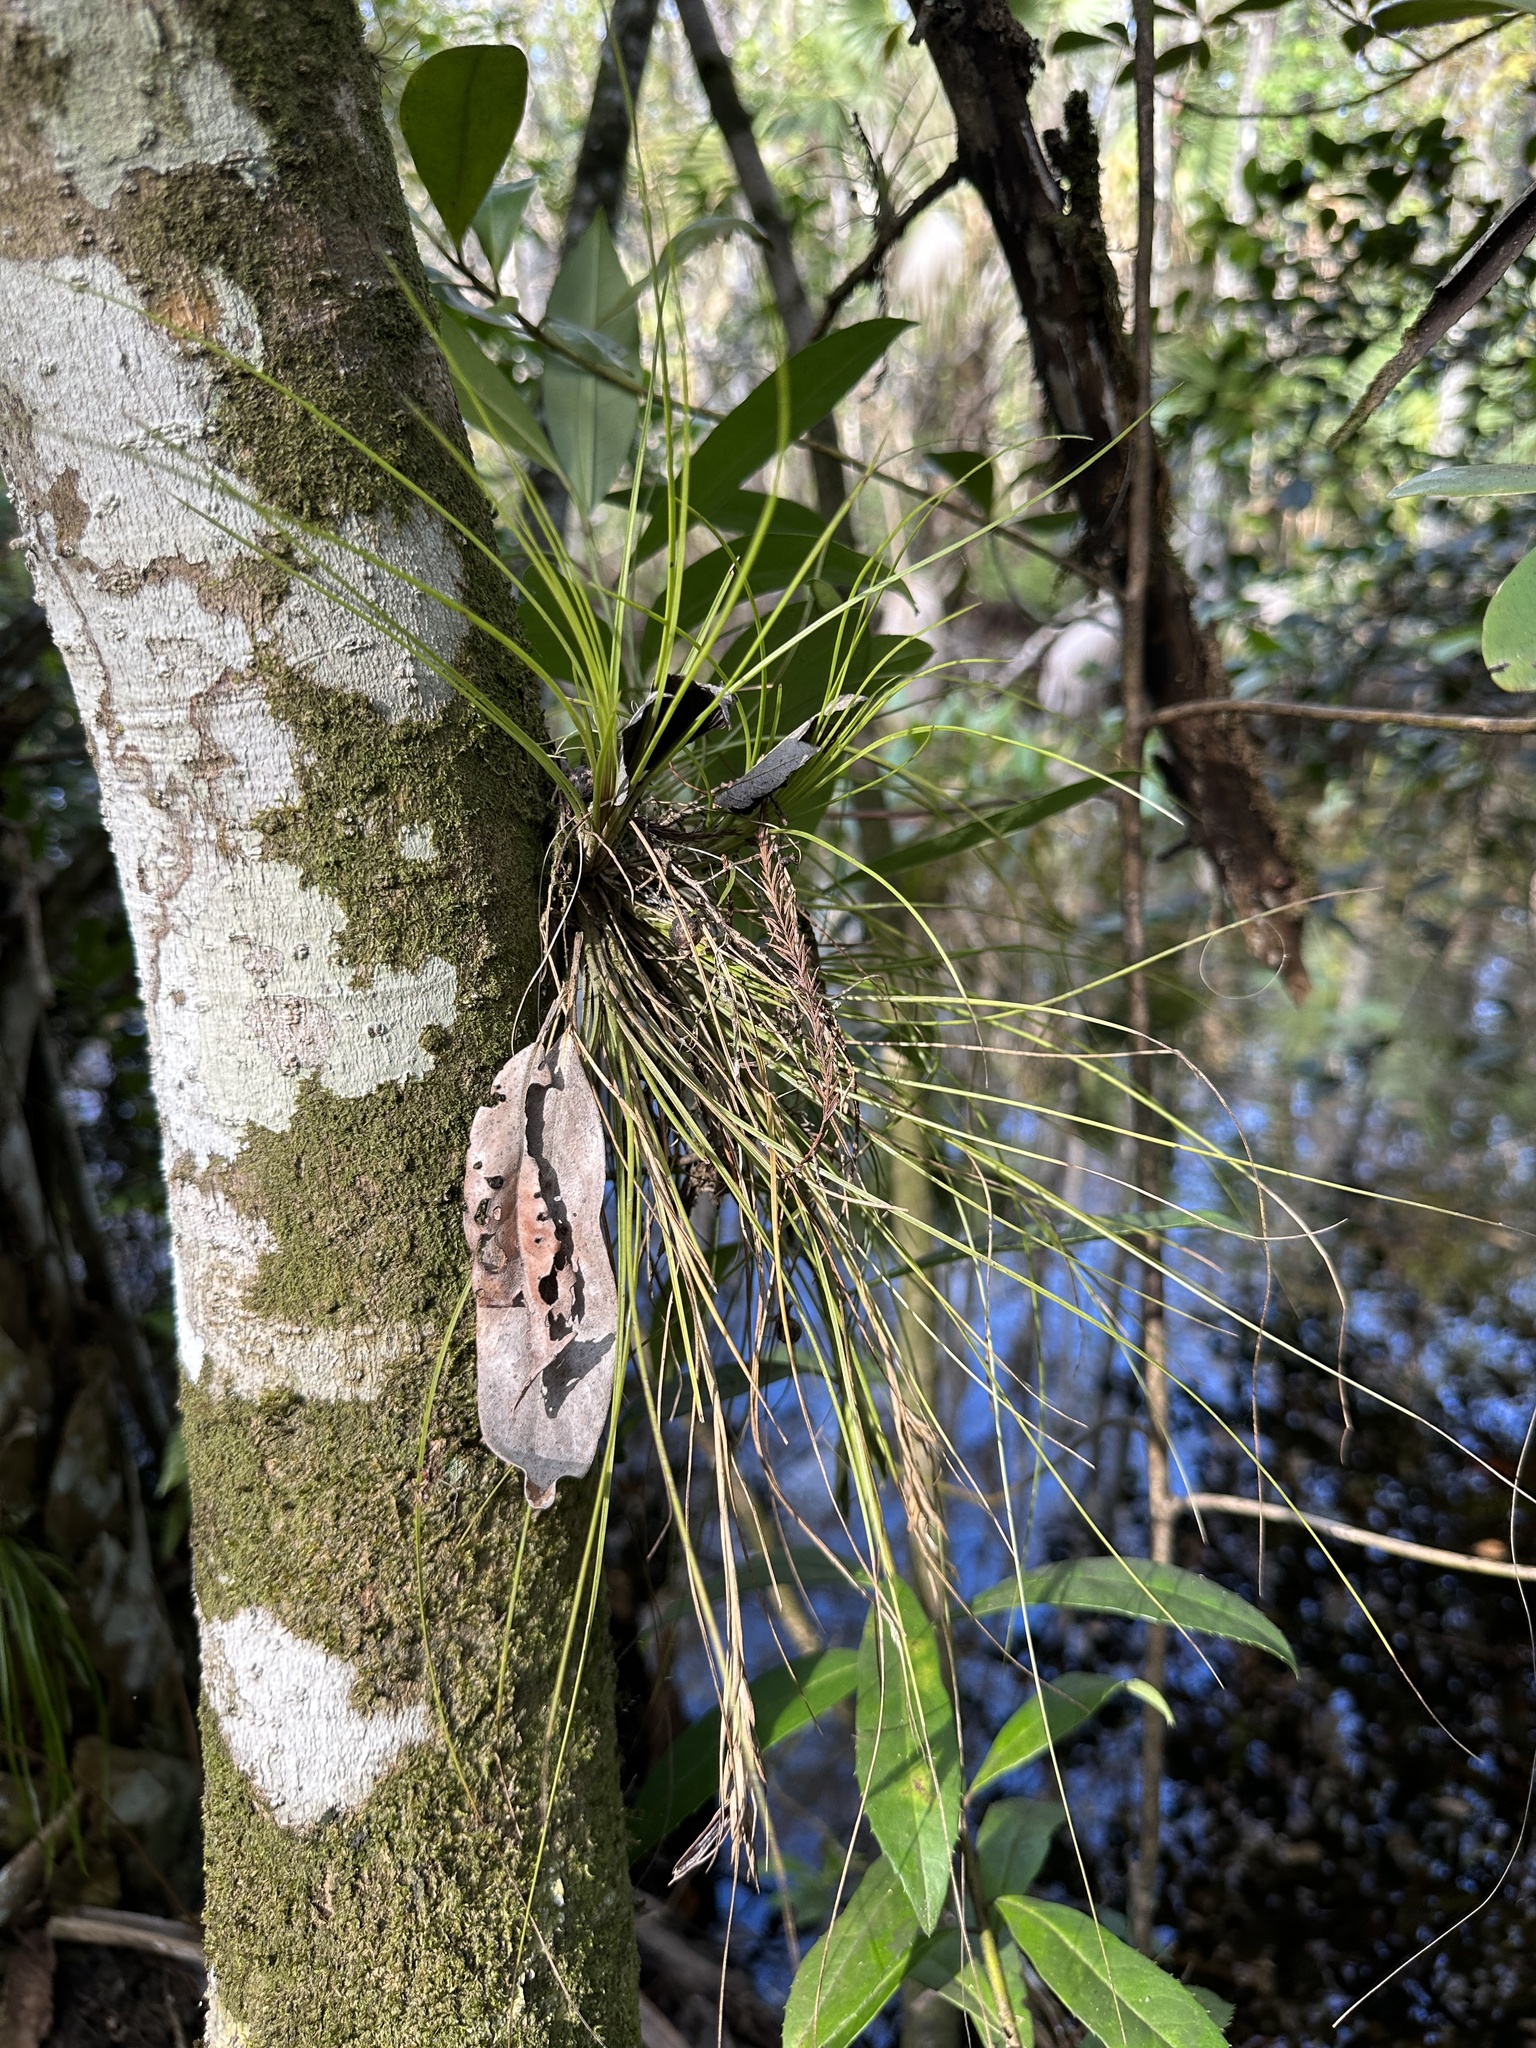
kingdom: Plantae
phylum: Tracheophyta
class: Liliopsida
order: Poales
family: Bromeliaceae
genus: Tillandsia
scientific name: Tillandsia setacea
